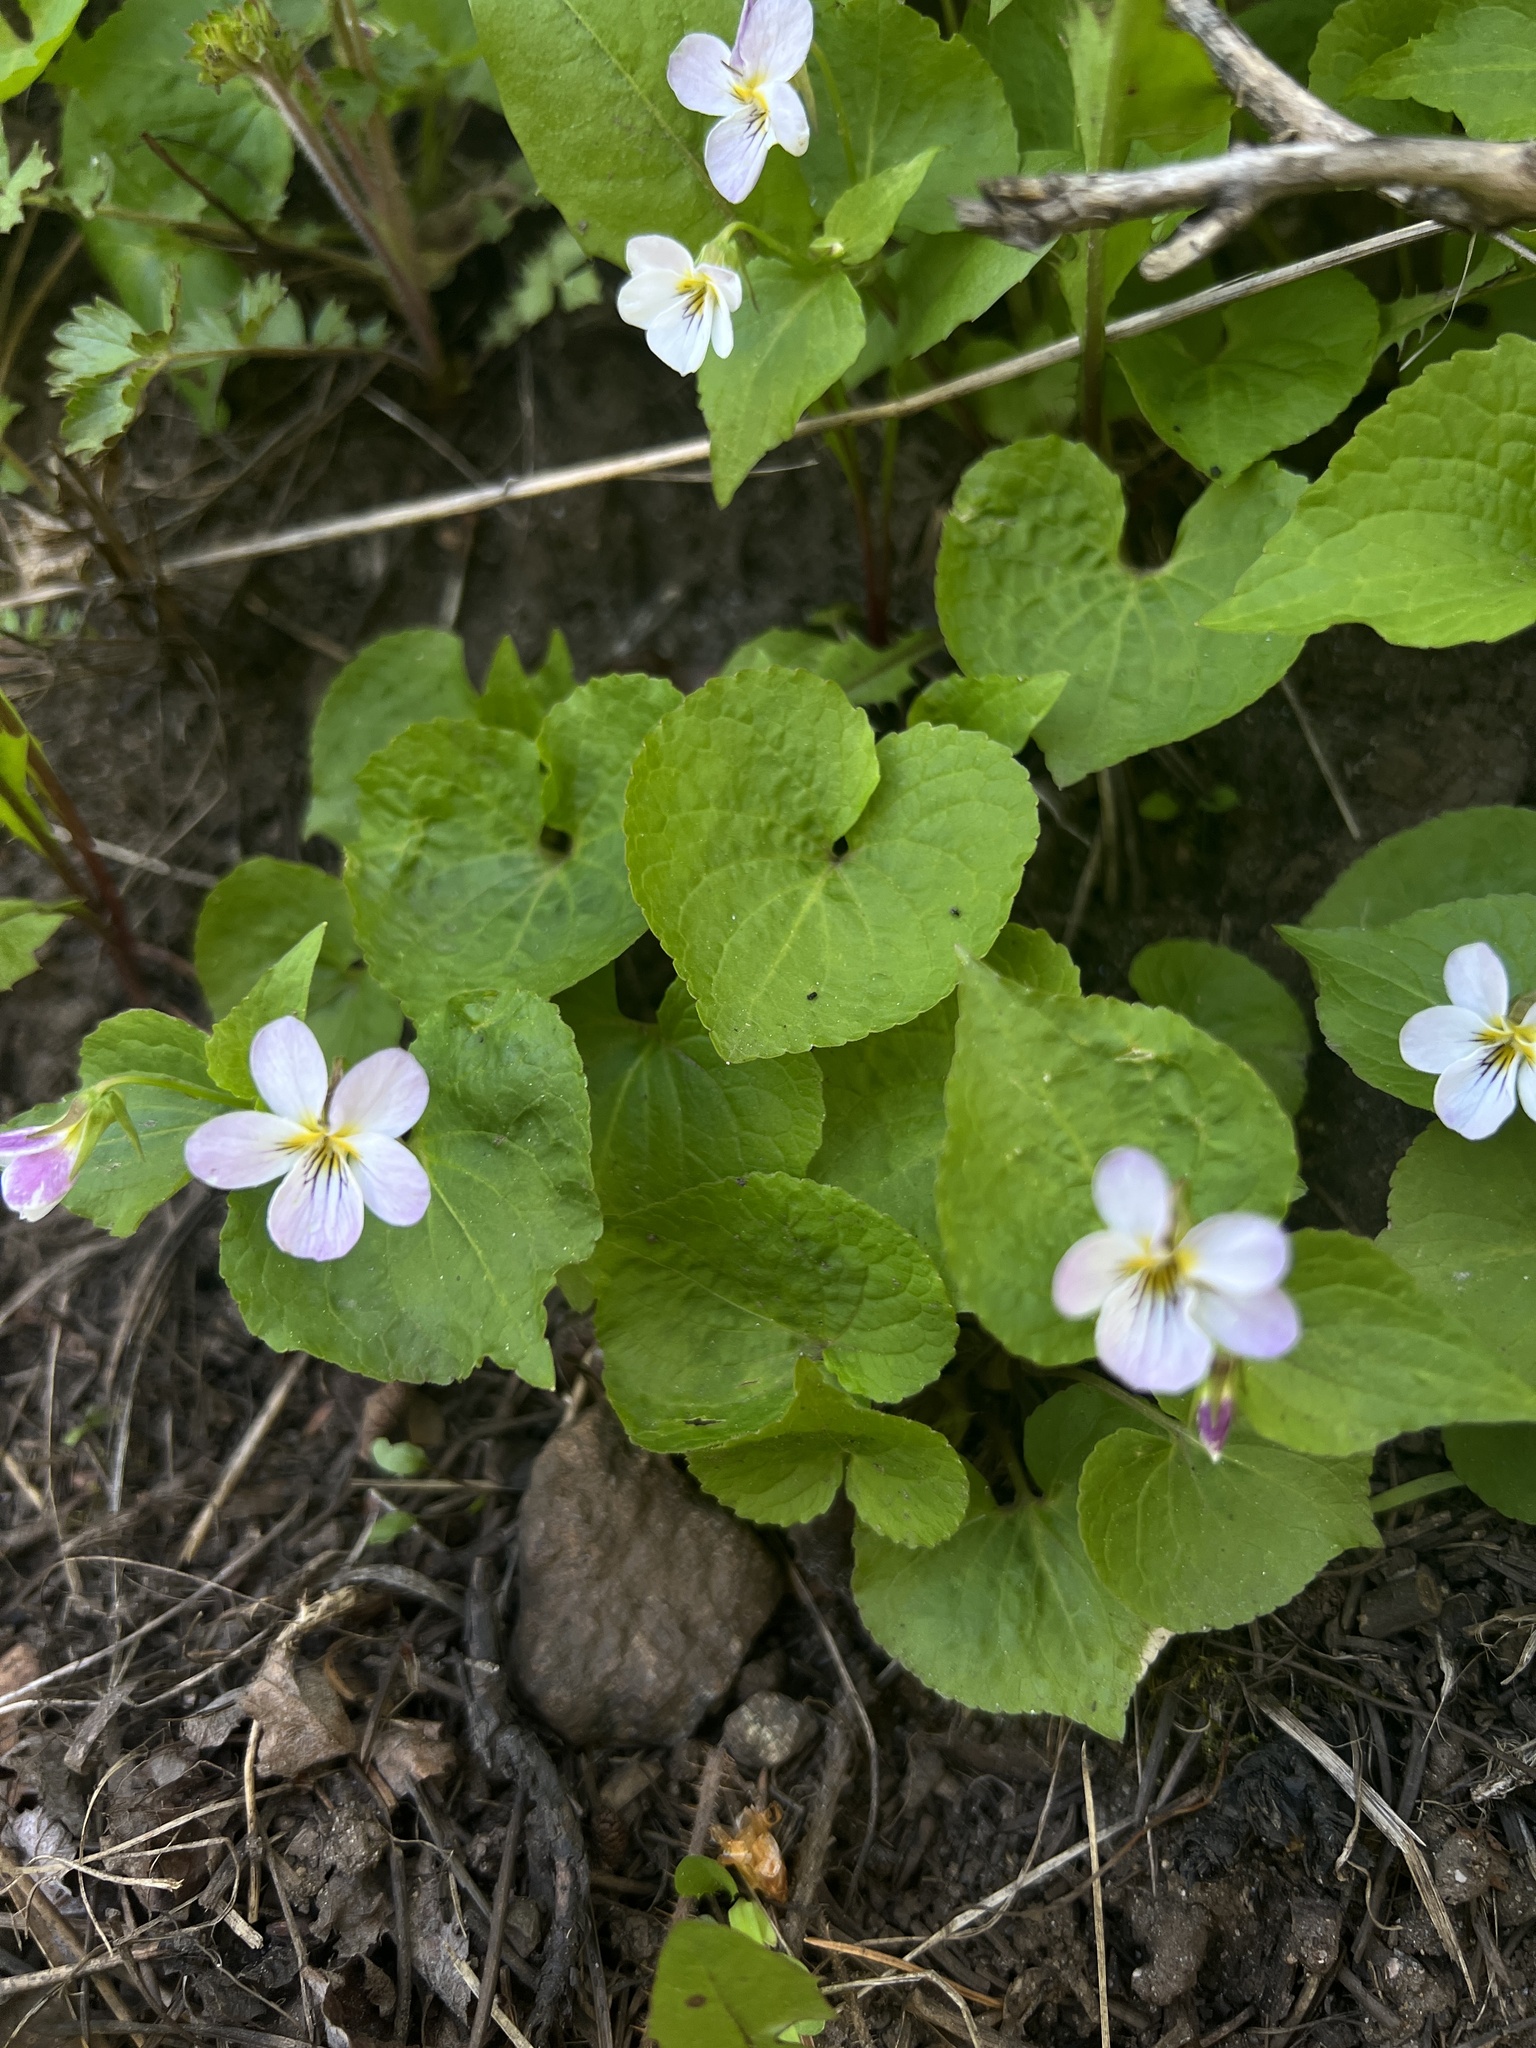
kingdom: Plantae
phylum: Tracheophyta
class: Magnoliopsida
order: Malpighiales
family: Violaceae
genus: Viola
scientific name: Viola canadensis
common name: Canada violet
